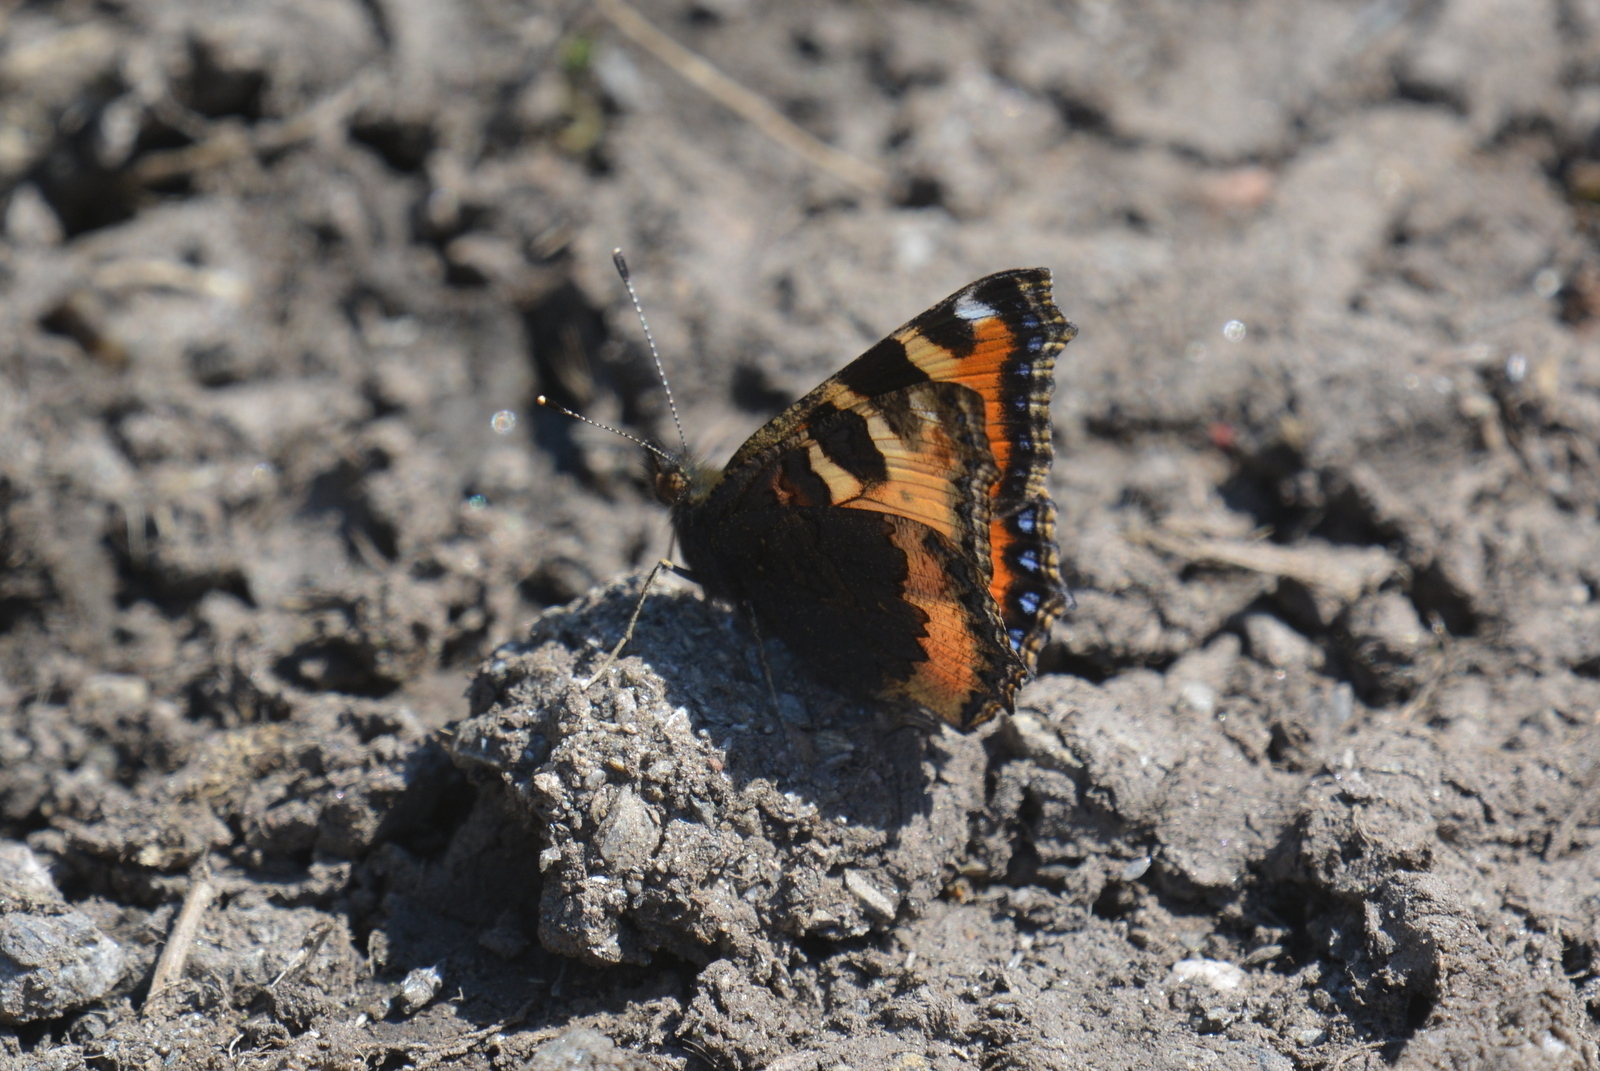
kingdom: Animalia
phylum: Arthropoda
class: Insecta
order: Lepidoptera
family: Nymphalidae
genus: Aglais
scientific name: Aglais urticae
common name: Small tortoiseshell
